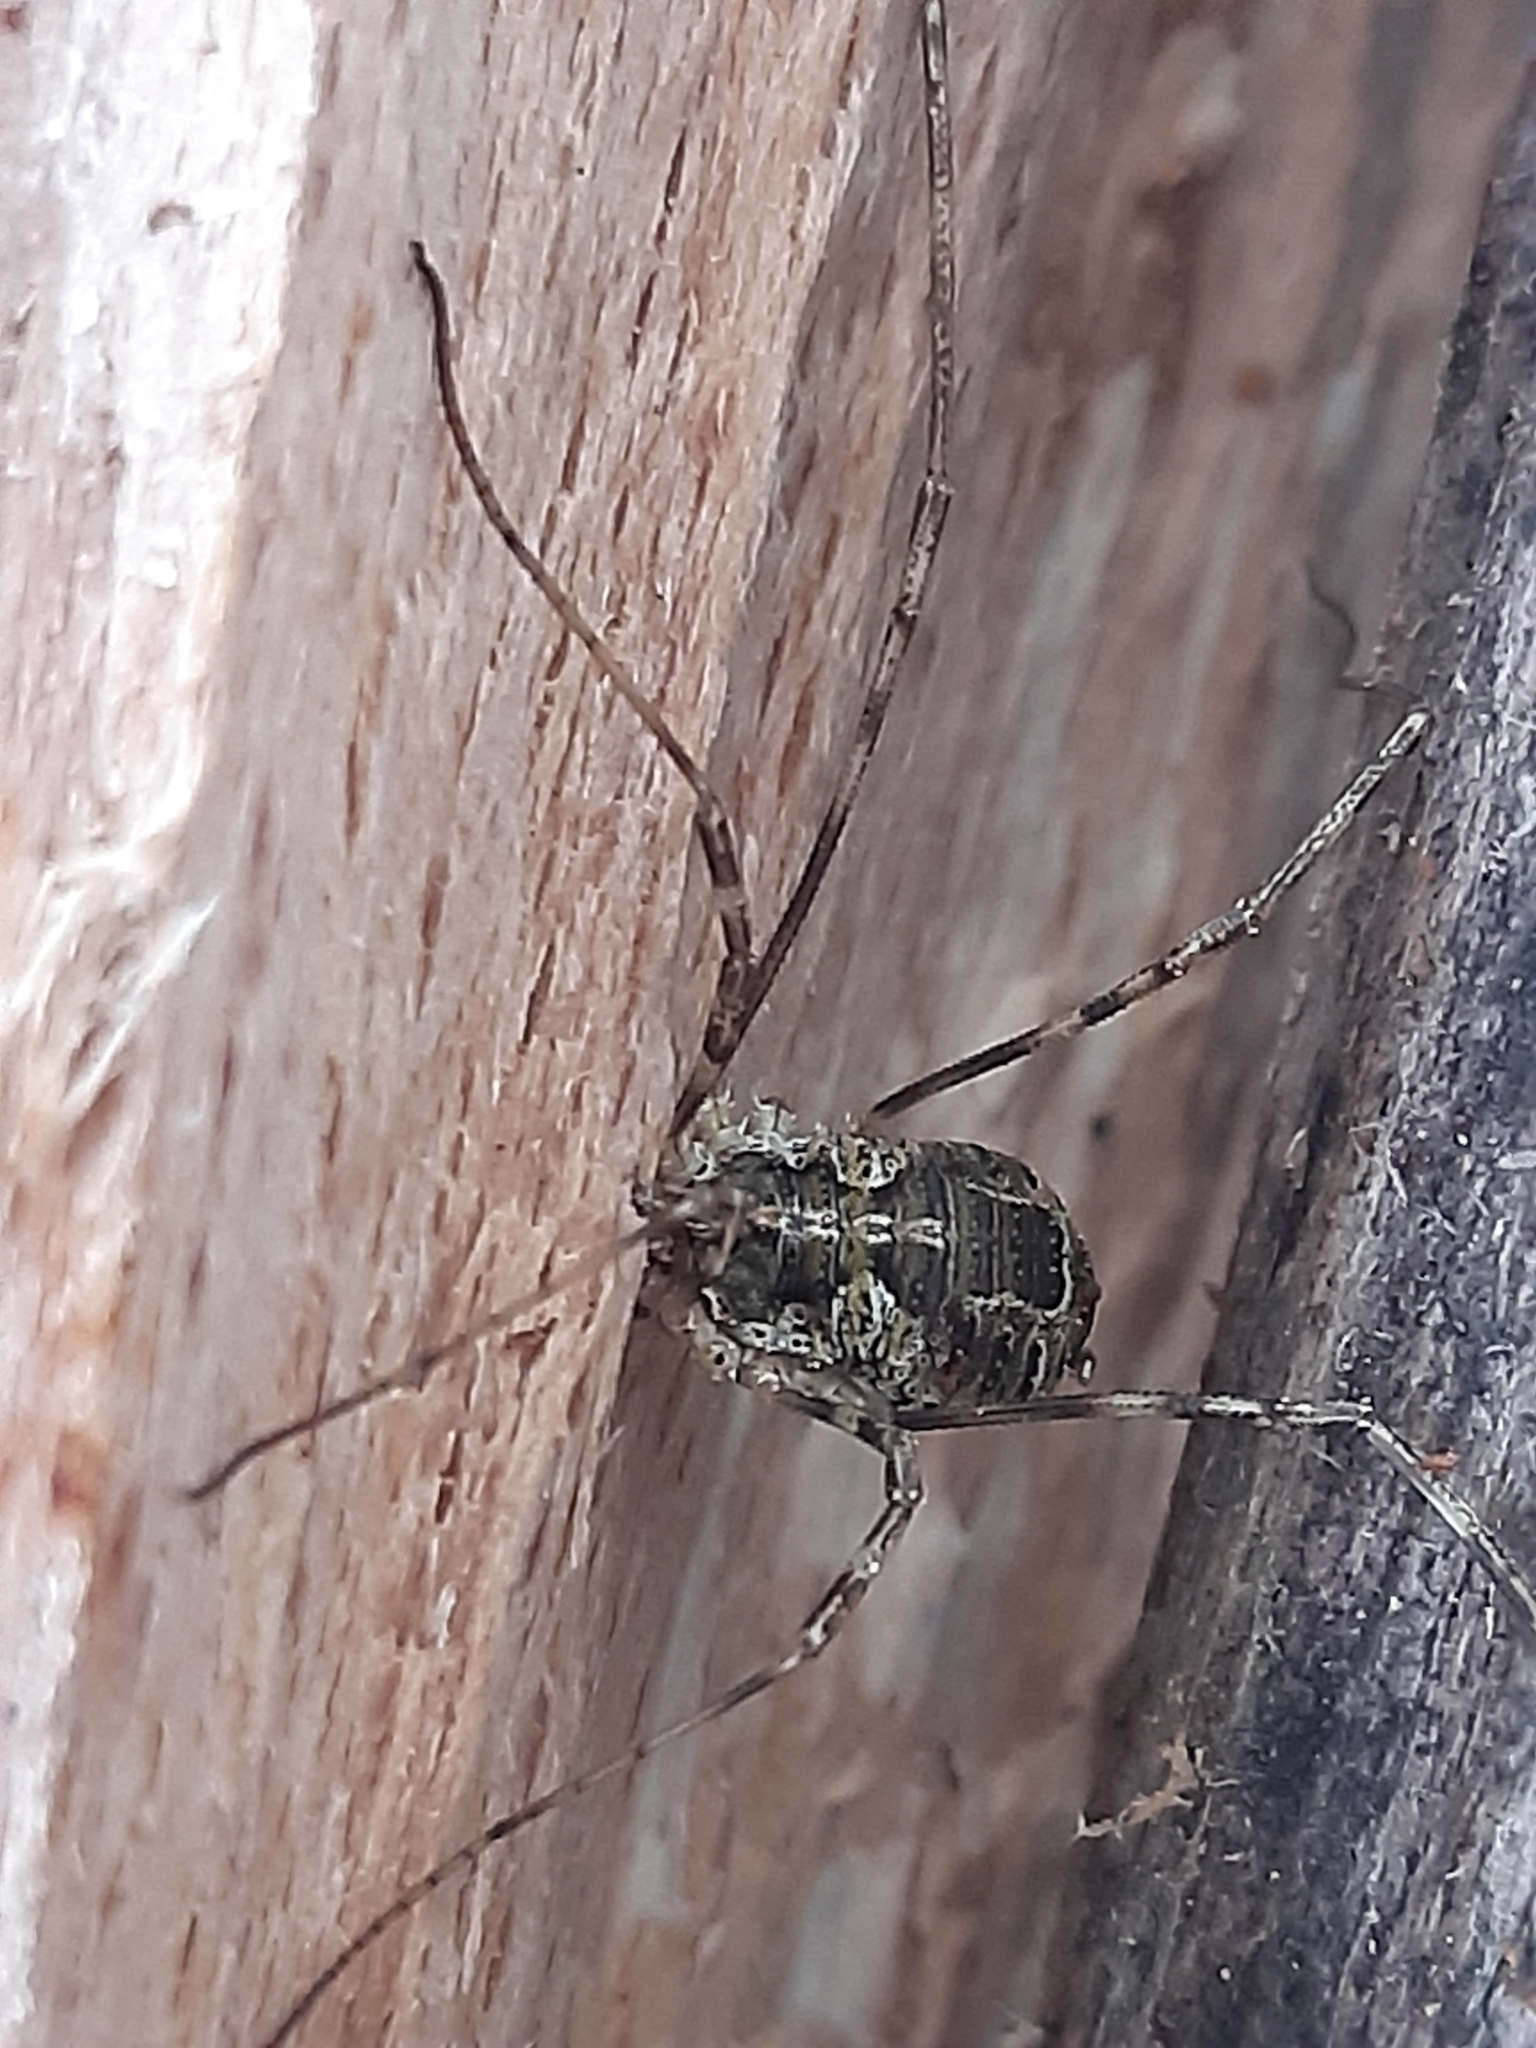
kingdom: Animalia
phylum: Arthropoda
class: Arachnida
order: Opiliones
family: Phalangiidae
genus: Lacinius
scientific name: Lacinius dentiger
